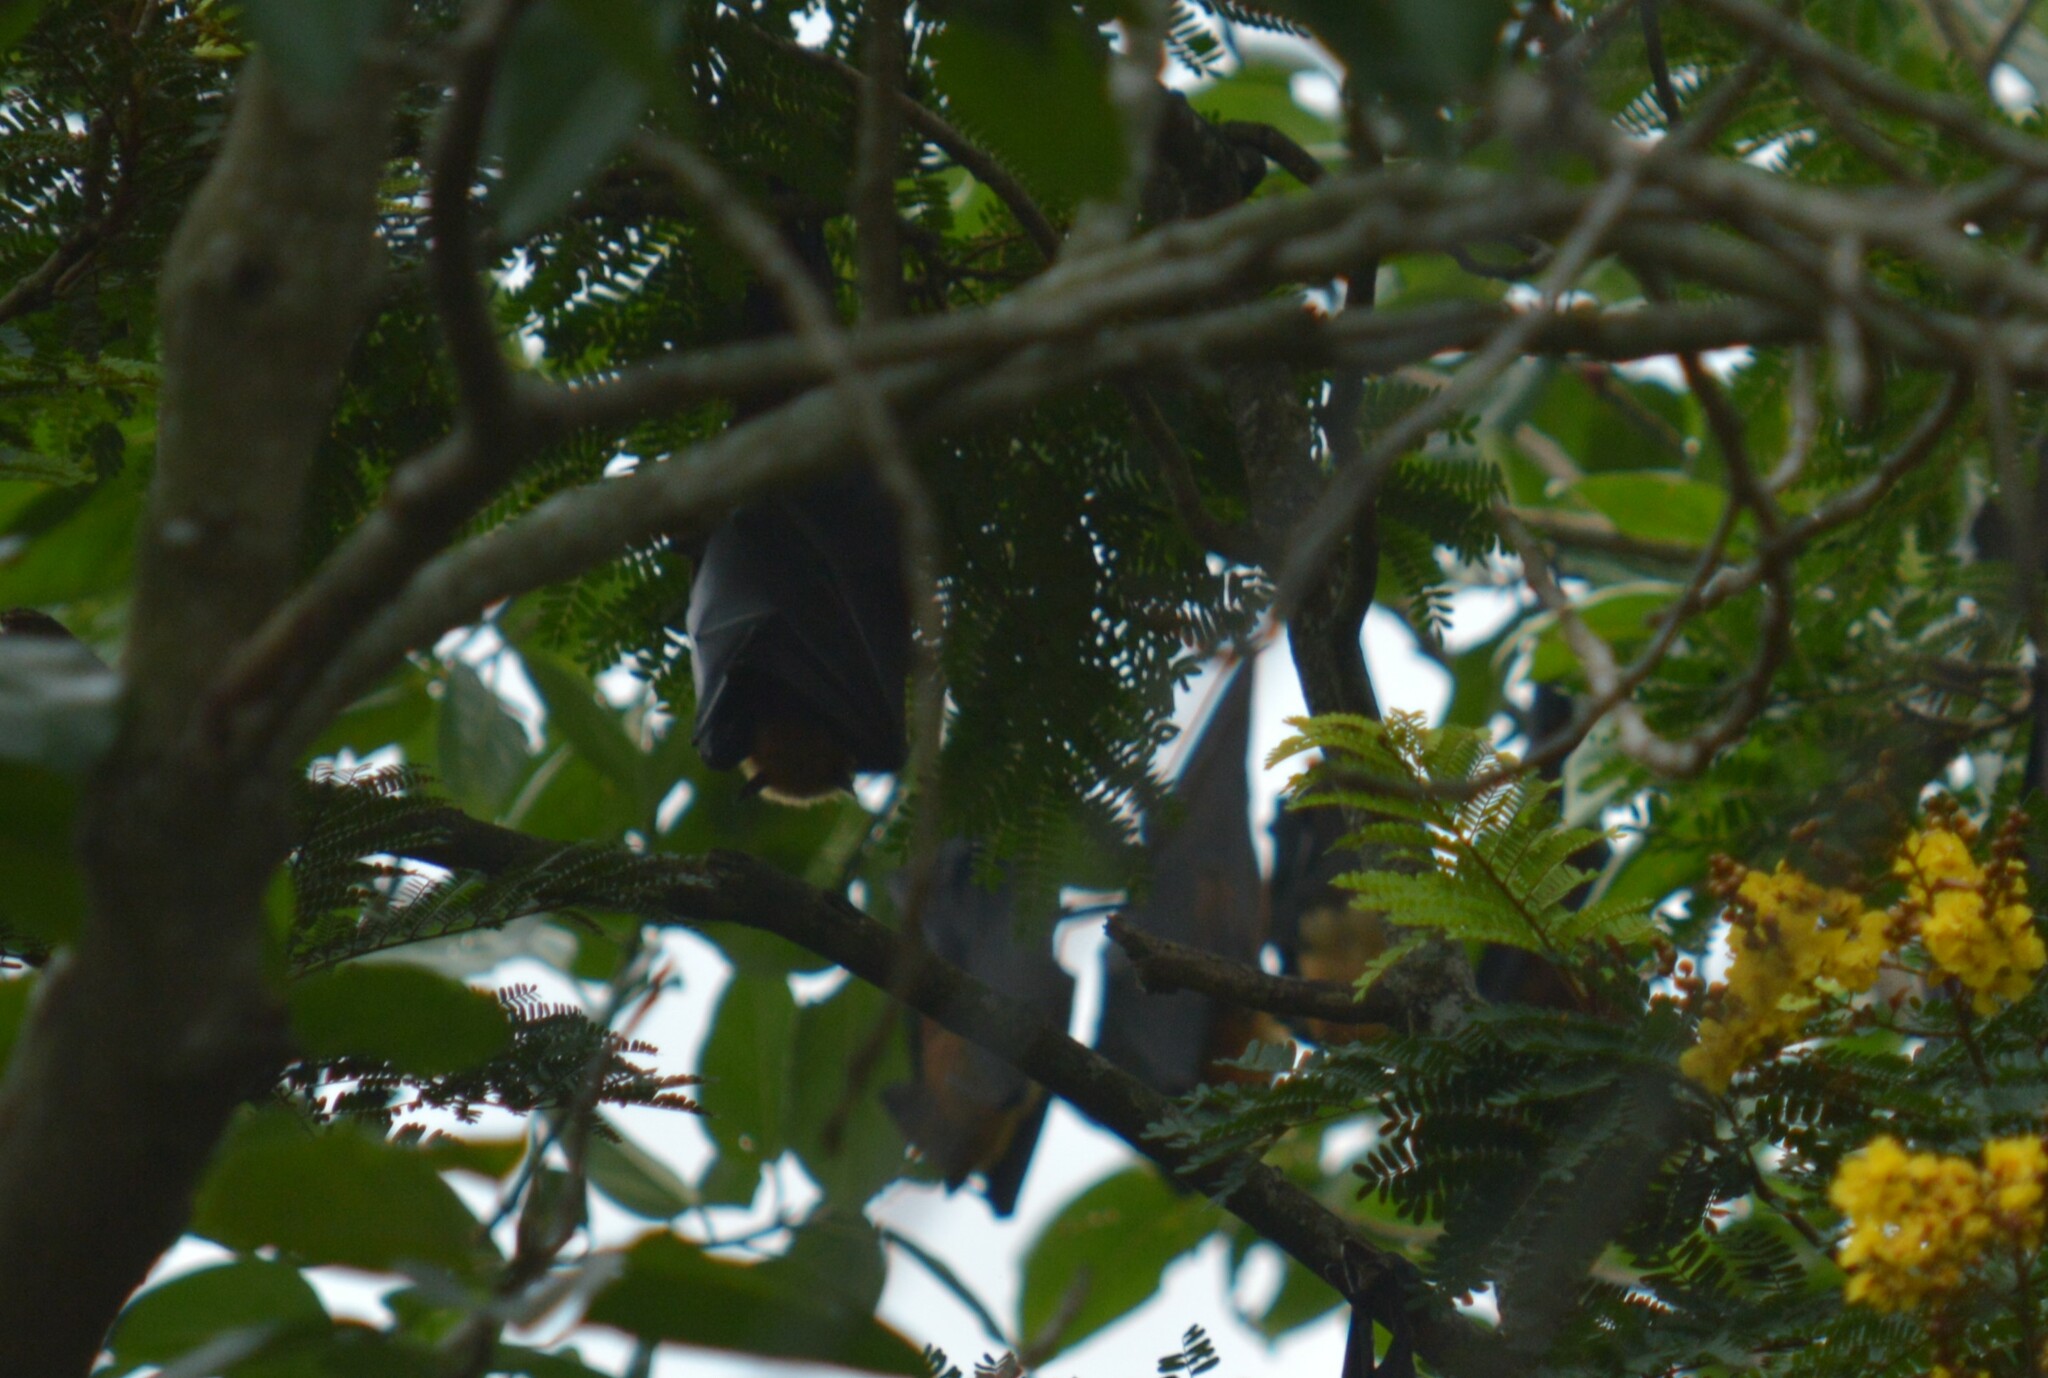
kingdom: Animalia
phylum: Chordata
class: Mammalia
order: Chiroptera
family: Pteropodidae
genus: Pteropus
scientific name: Pteropus vampyrus
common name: Large flying fox
